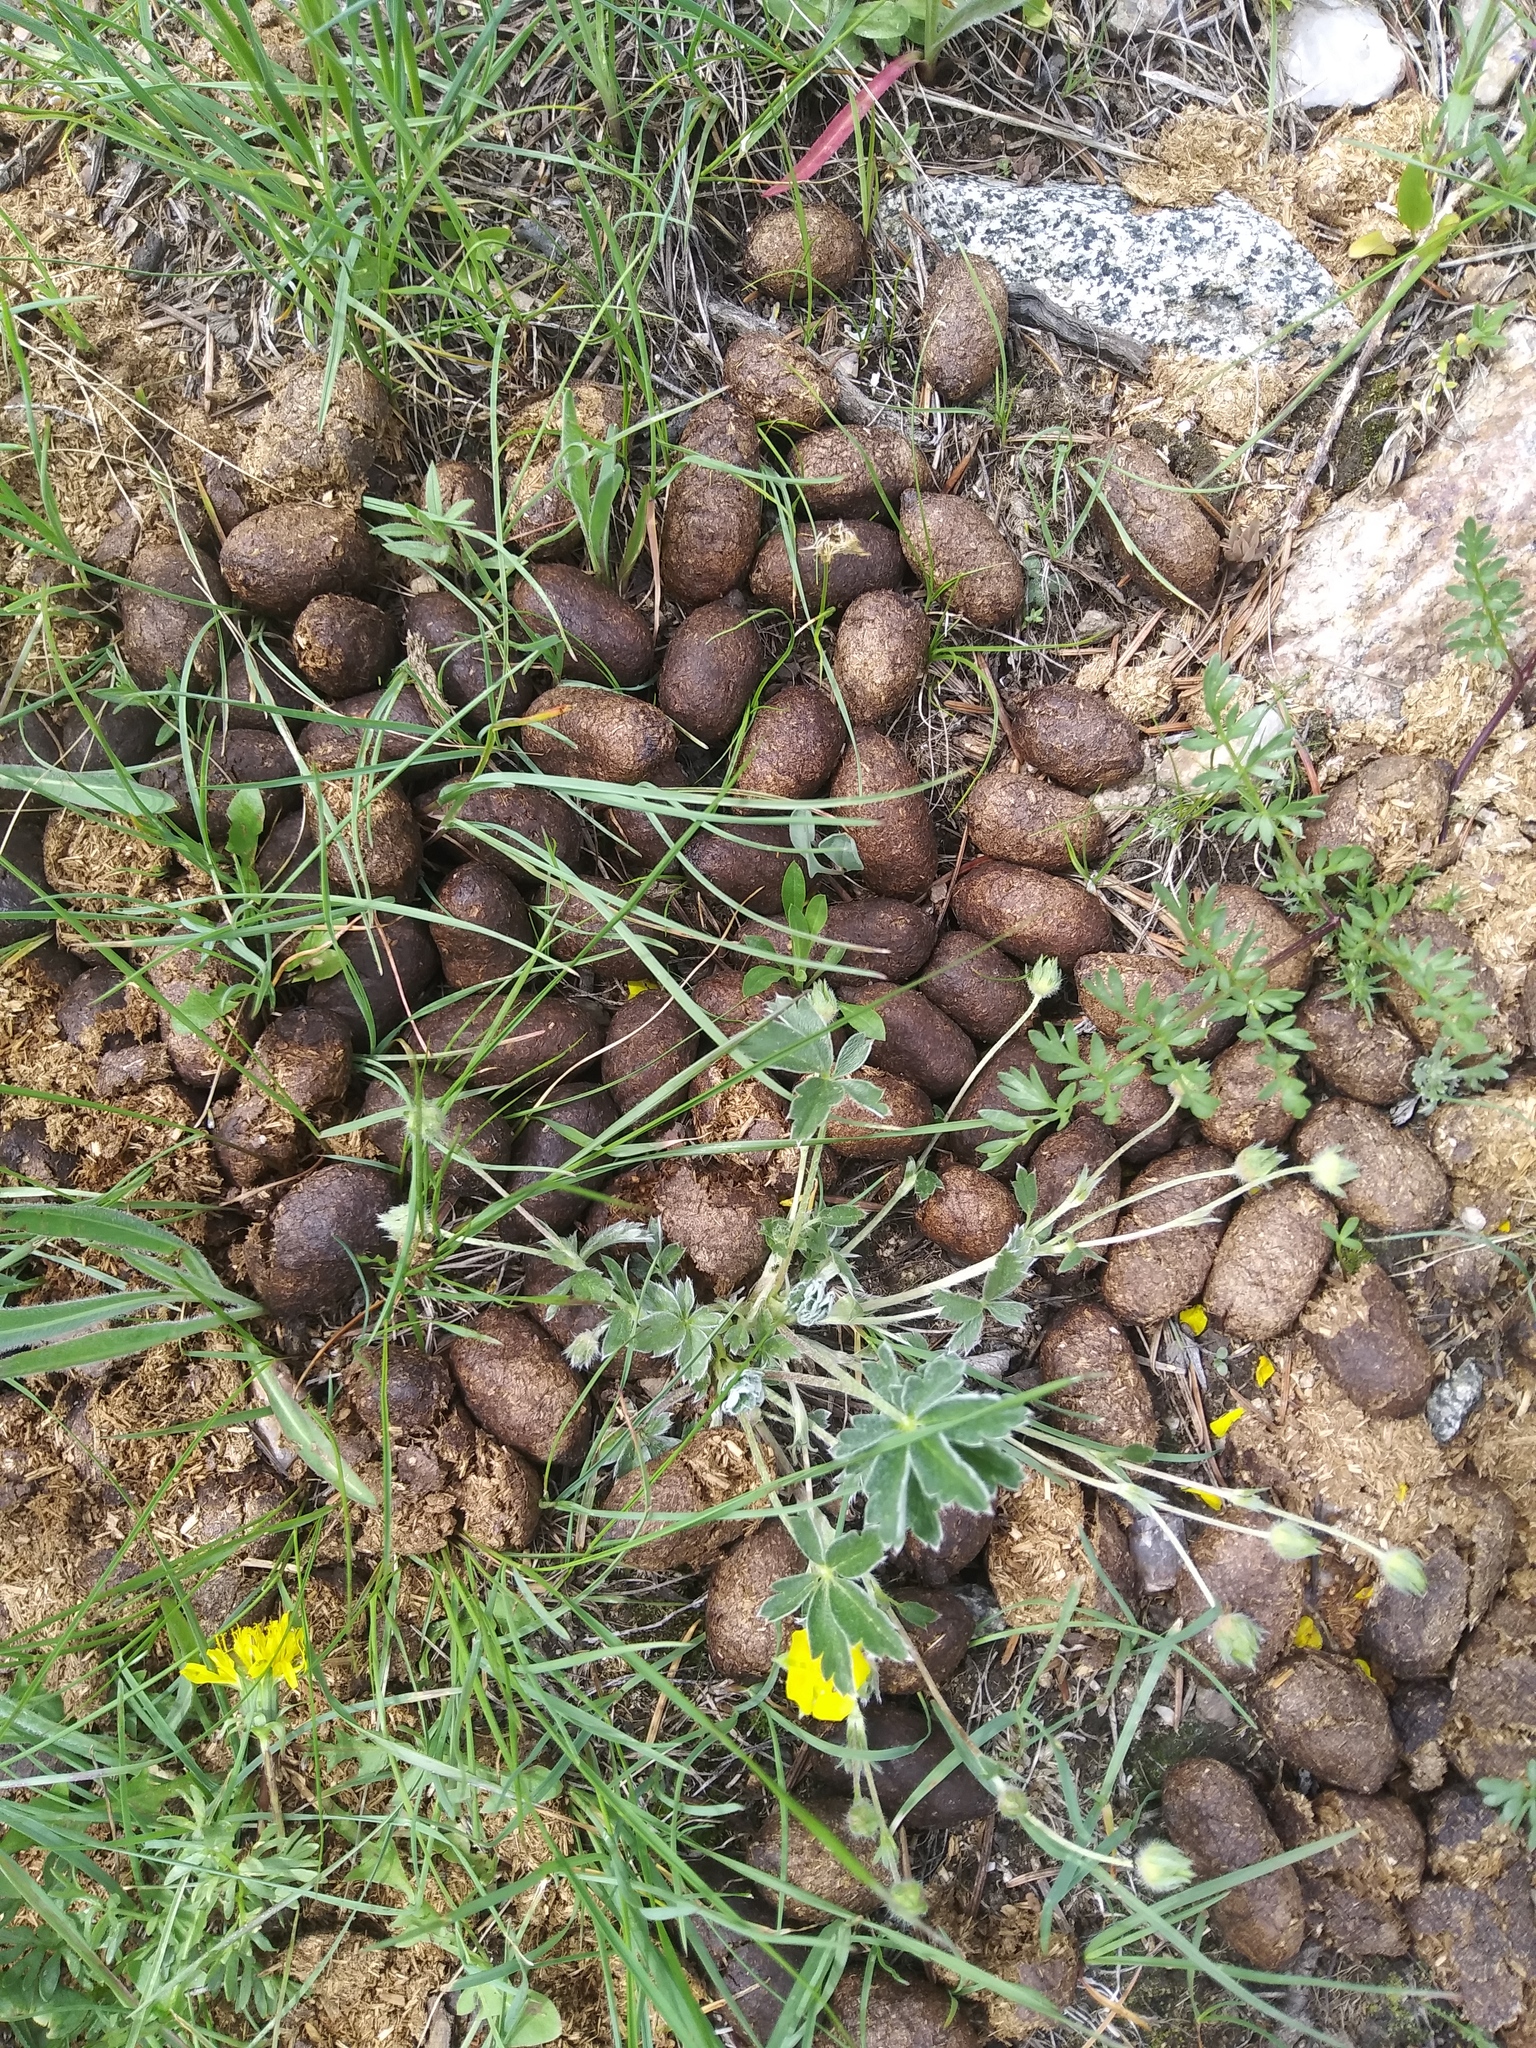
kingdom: Animalia
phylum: Chordata
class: Mammalia
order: Artiodactyla
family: Cervidae
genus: Alces
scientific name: Alces alces
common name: Moose
